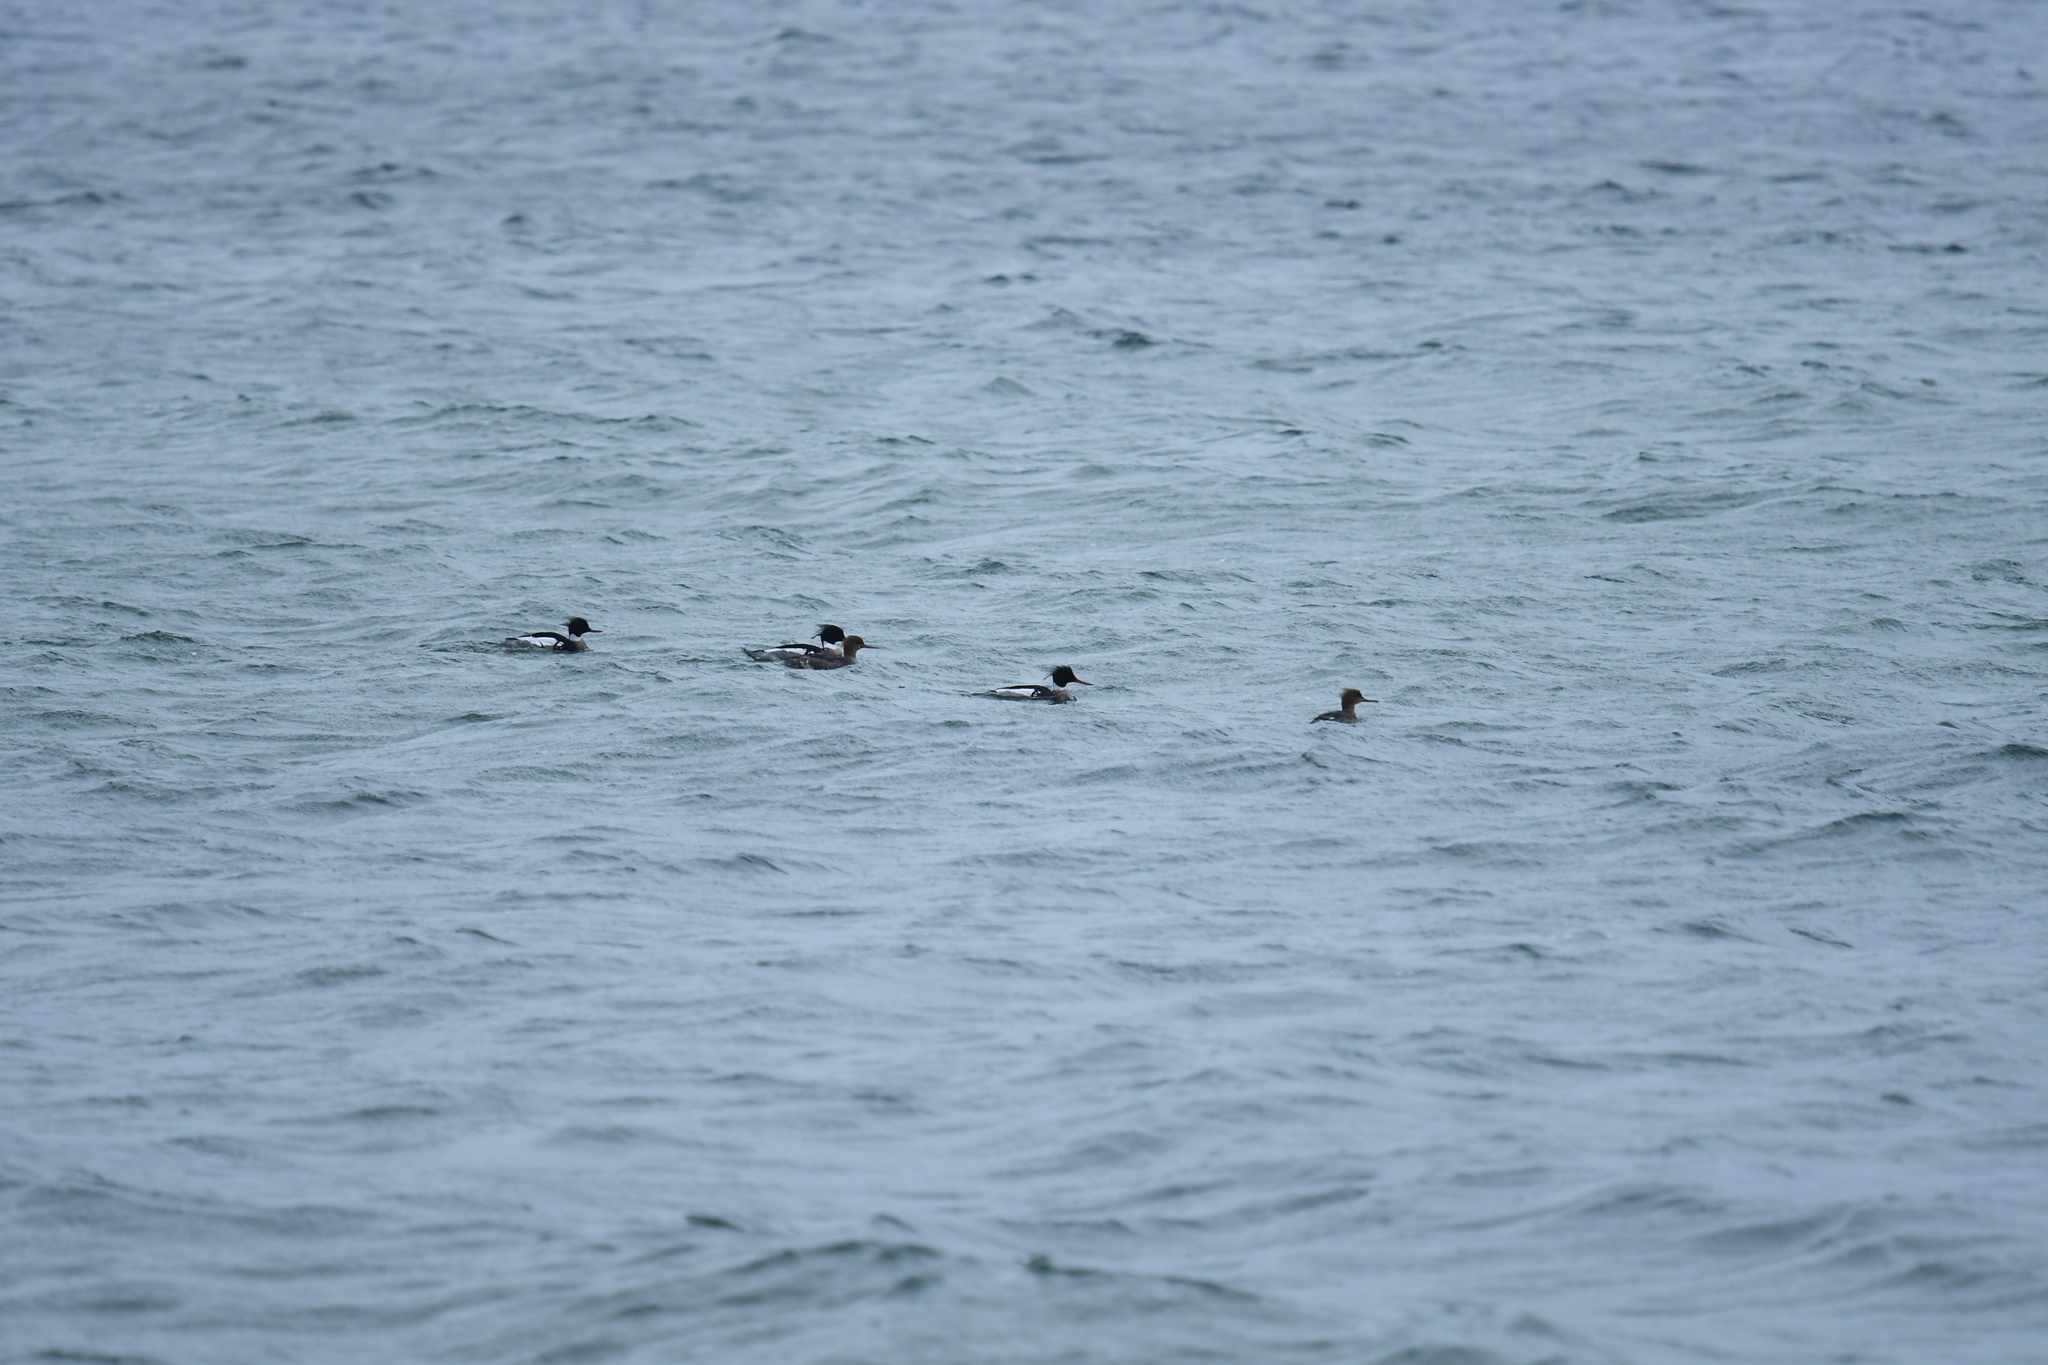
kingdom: Animalia
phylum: Chordata
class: Aves
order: Anseriformes
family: Anatidae
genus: Mergus
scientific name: Mergus serrator
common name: Red-breasted merganser
